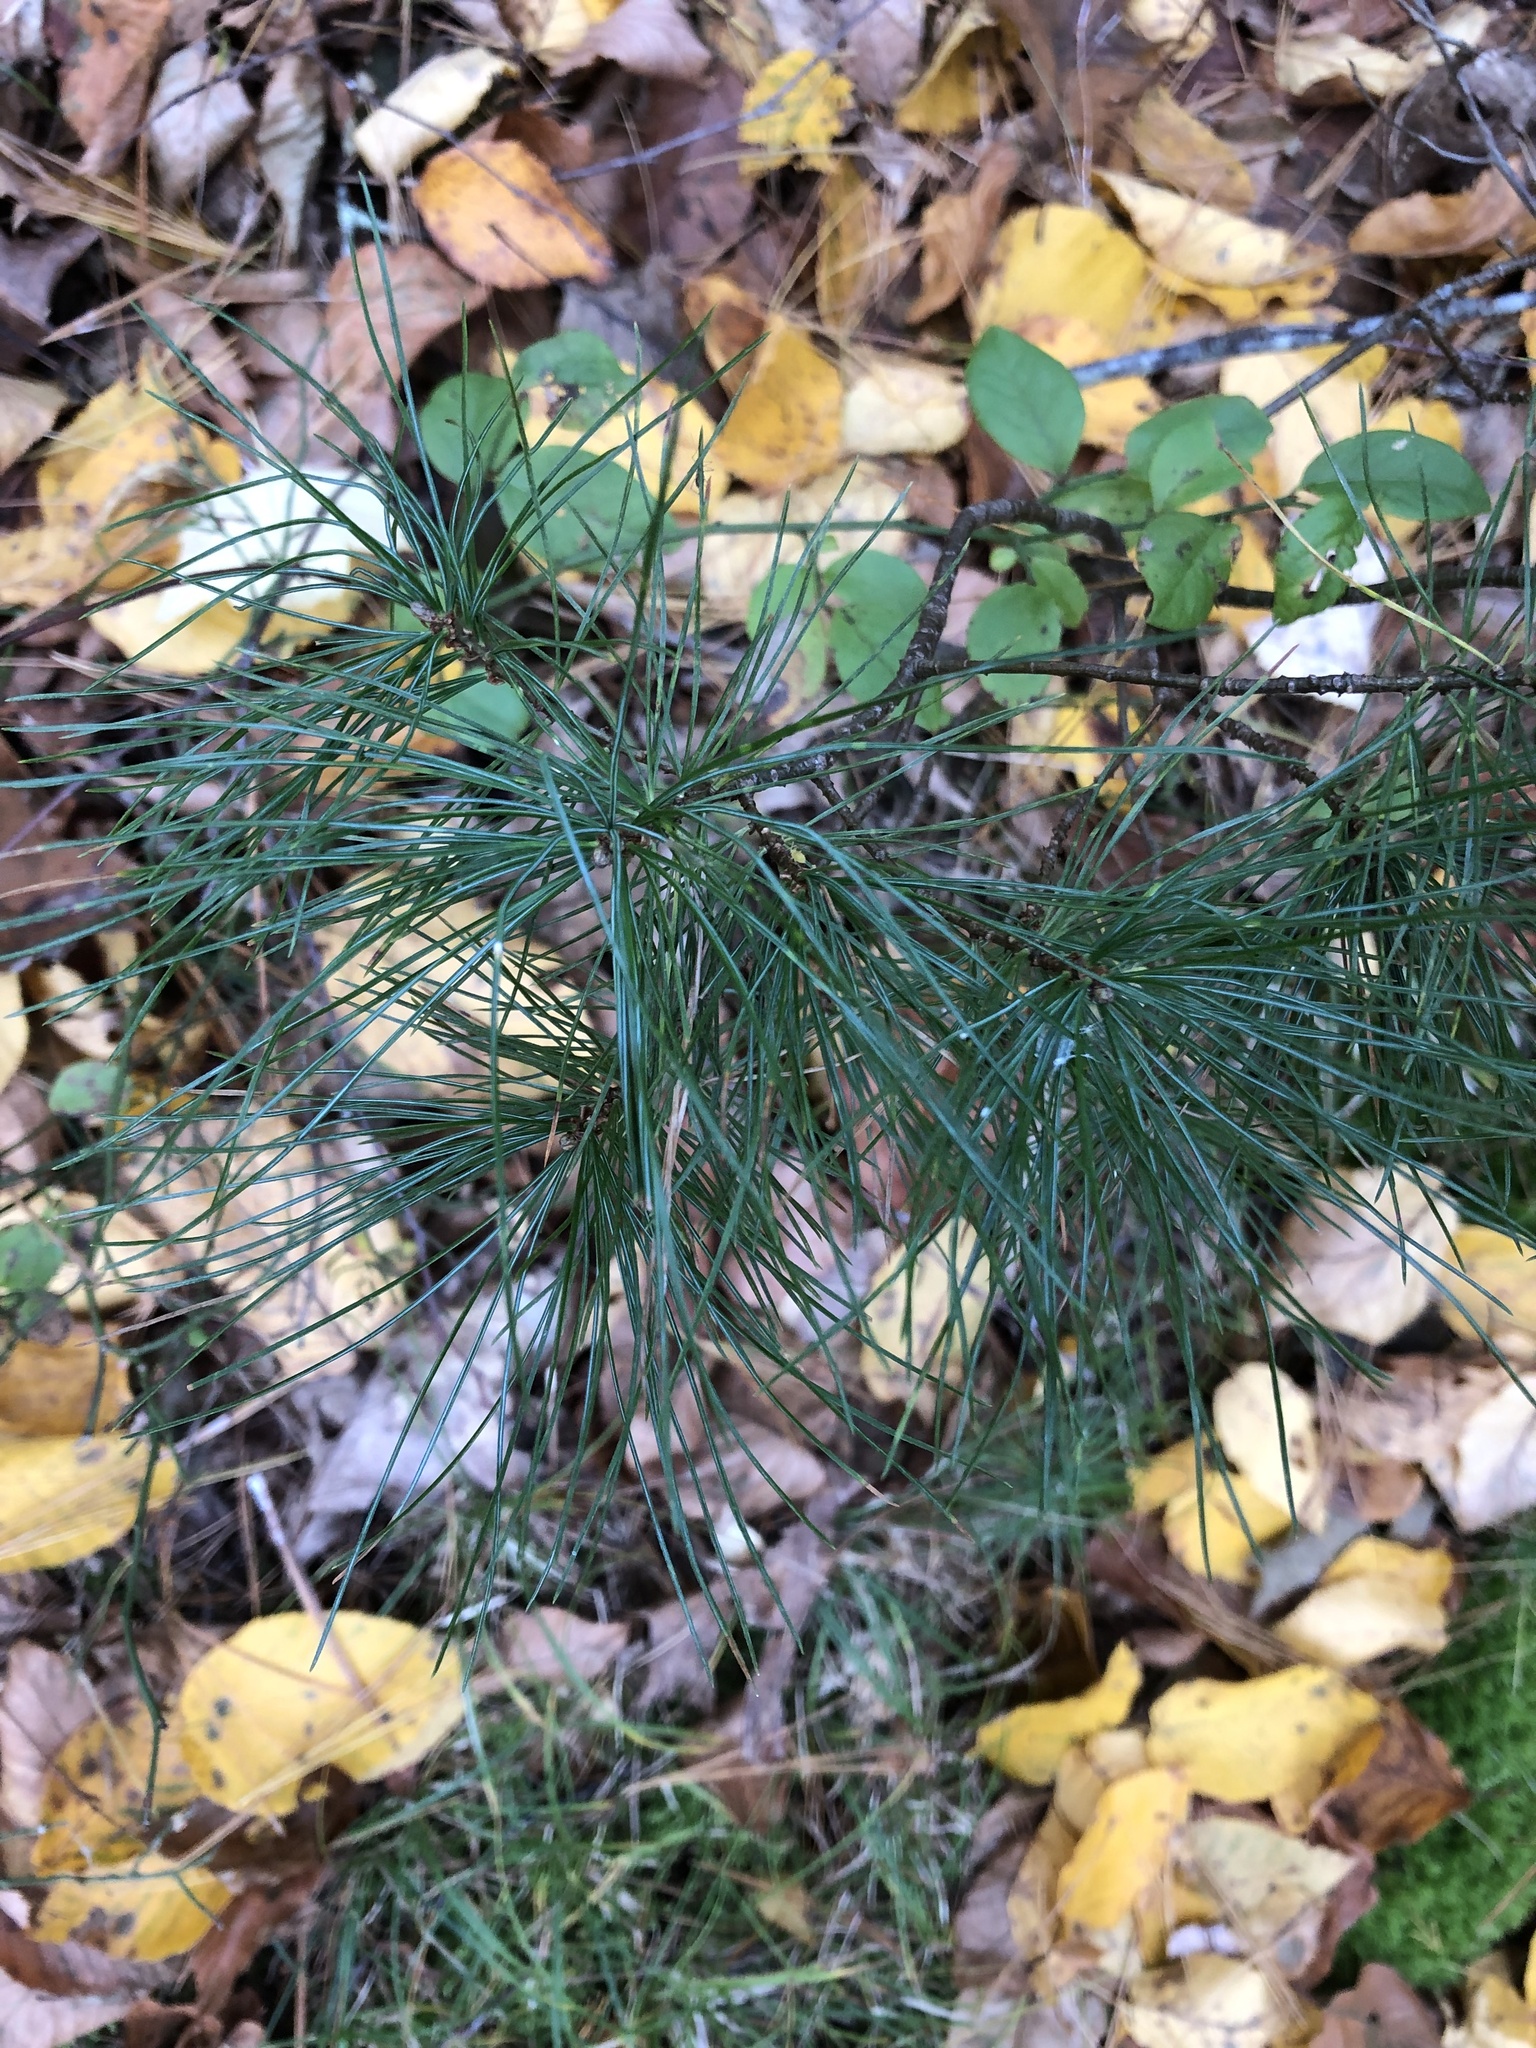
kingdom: Plantae
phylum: Tracheophyta
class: Pinopsida
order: Pinales
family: Pinaceae
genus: Pinus
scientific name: Pinus strobus
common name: Weymouth pine
